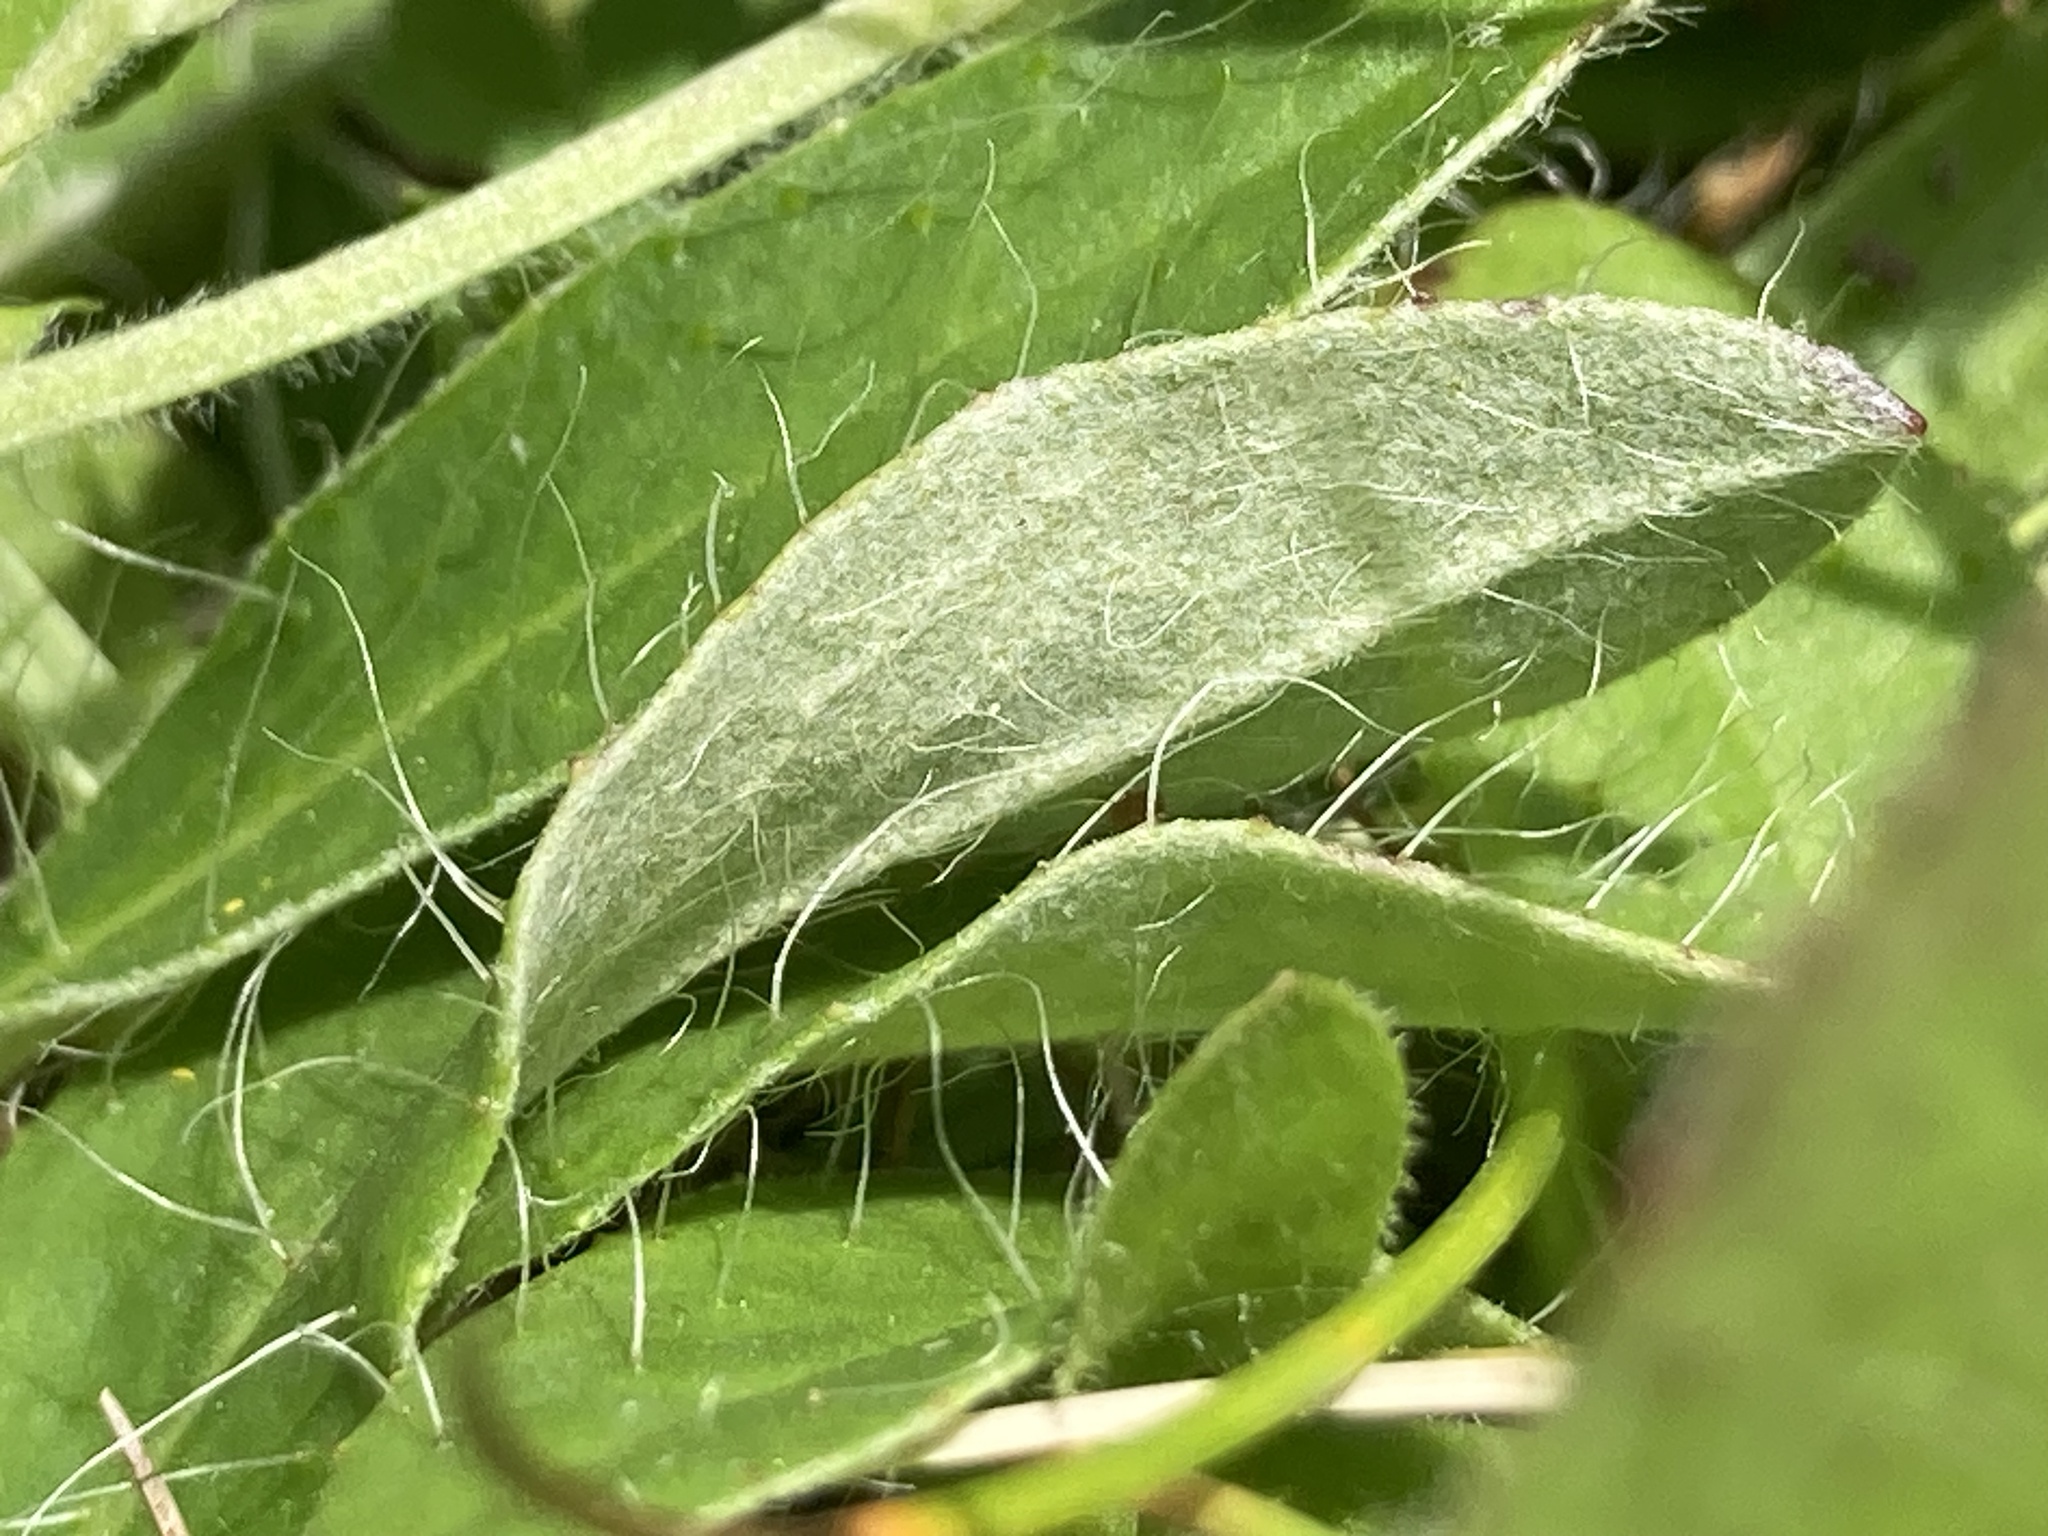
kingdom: Plantae
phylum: Tracheophyta
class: Magnoliopsida
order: Asterales
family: Asteraceae
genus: Pilosella
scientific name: Pilosella officinarum
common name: Mouse-ear hawkweed
